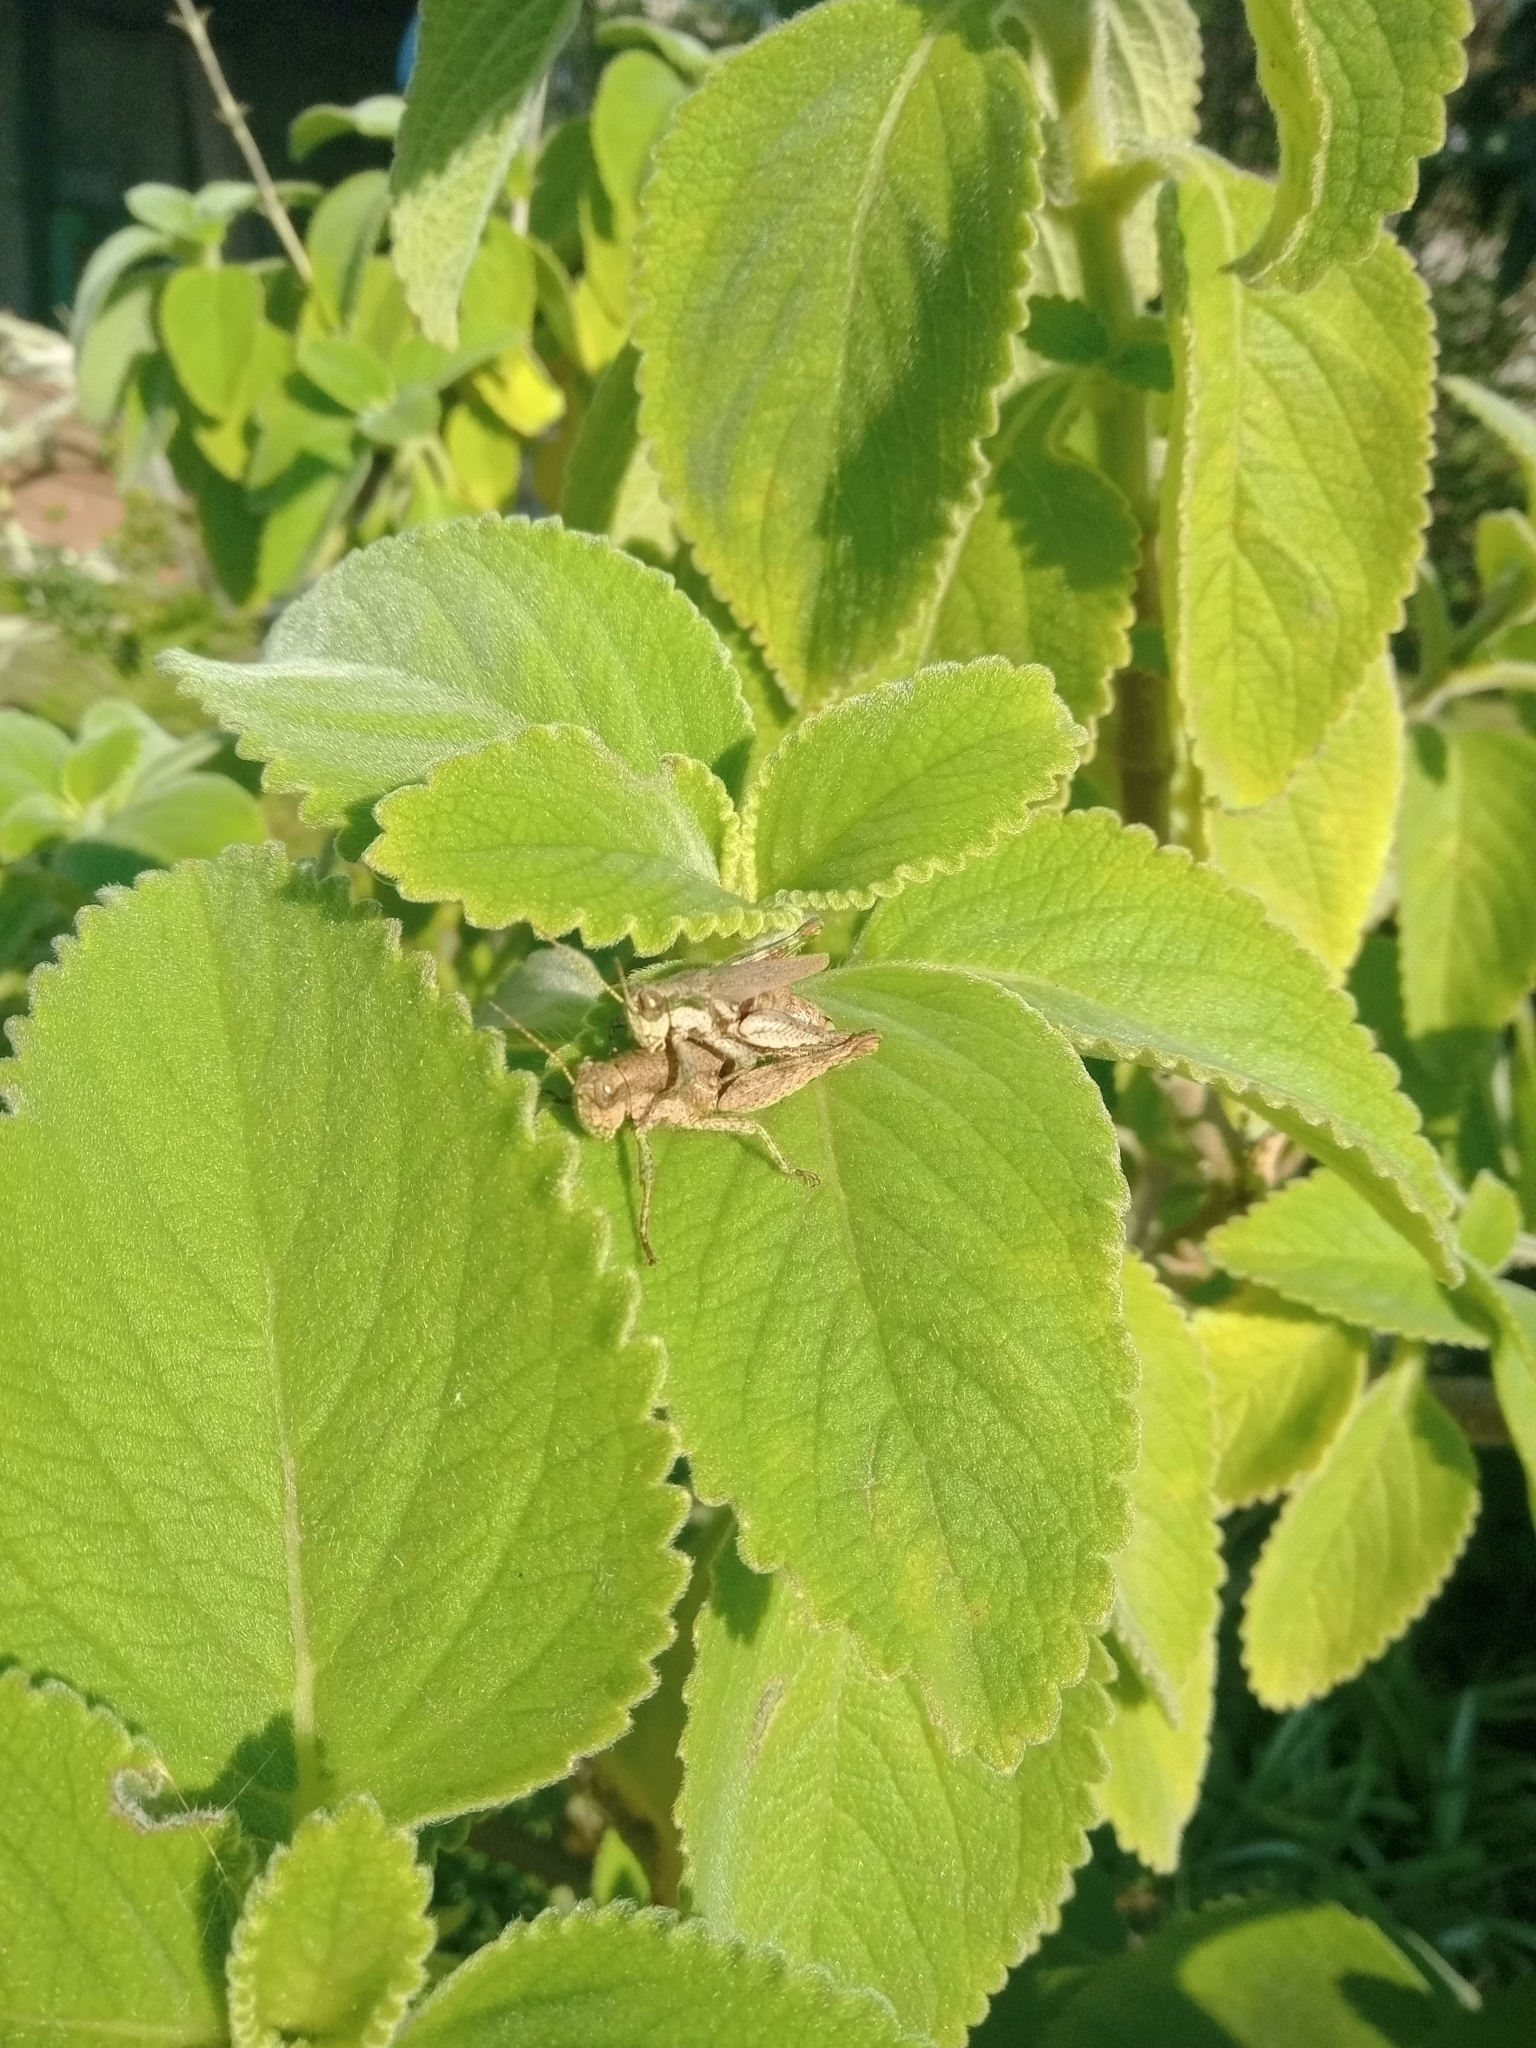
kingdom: Animalia
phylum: Arthropoda
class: Insecta
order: Orthoptera
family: Acrididae
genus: Ronderosia
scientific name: Ronderosia bergii
